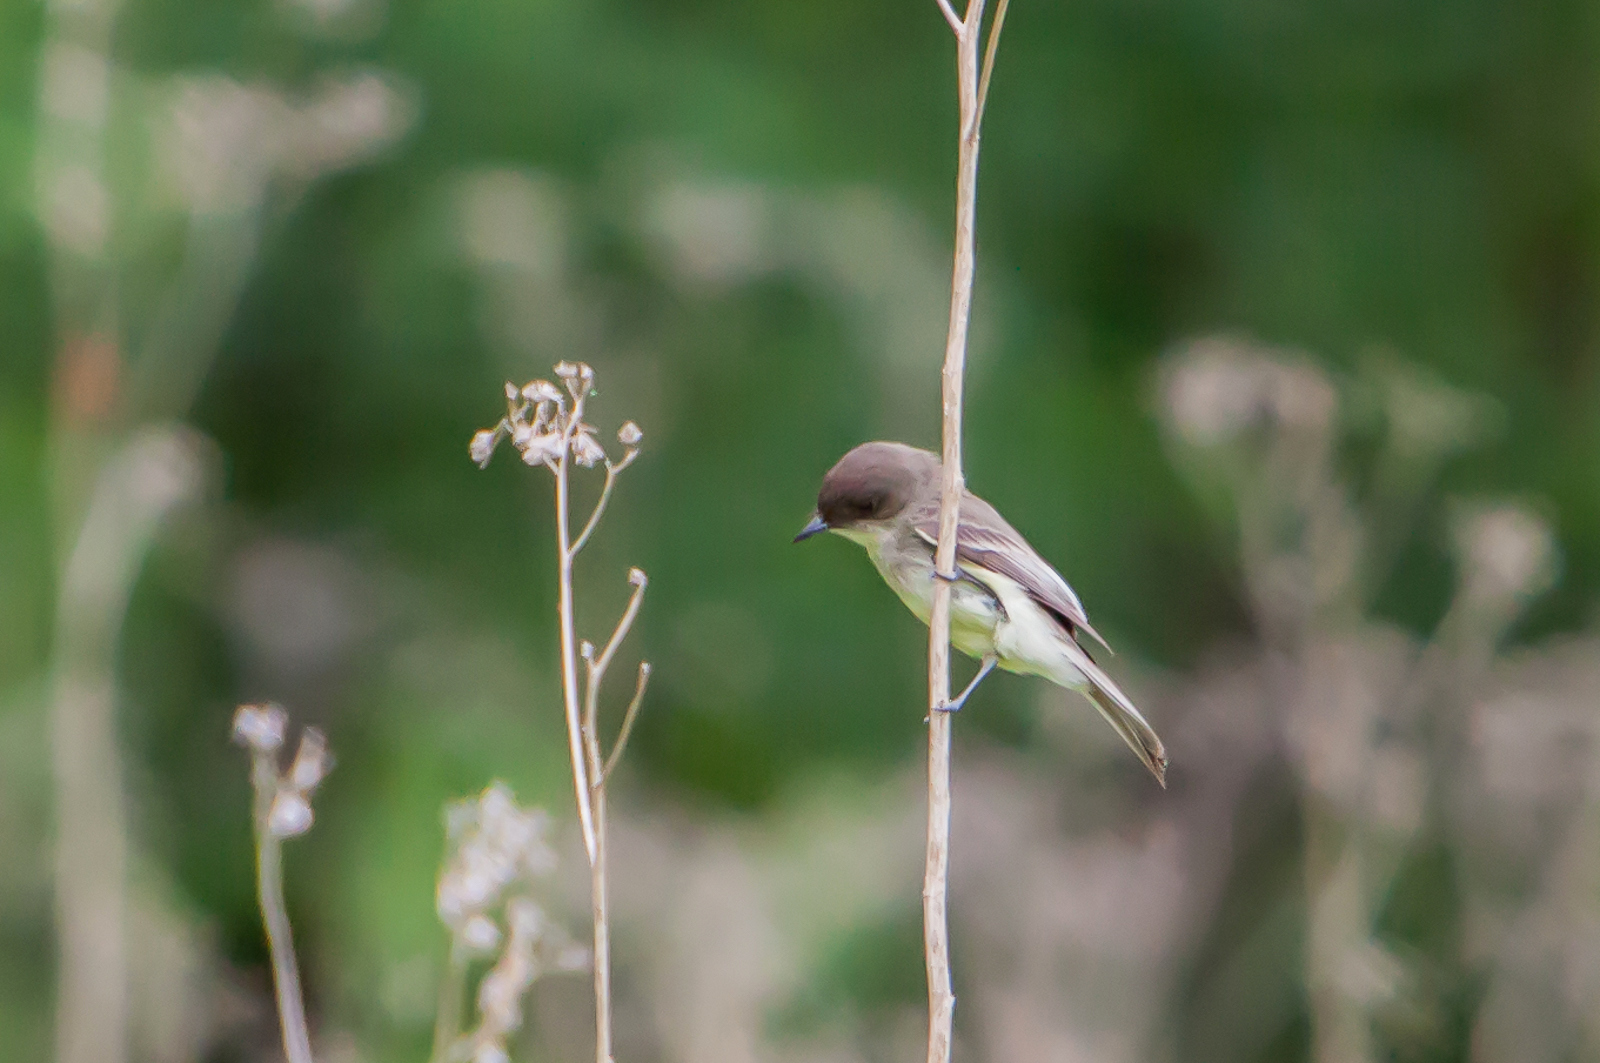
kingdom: Animalia
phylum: Chordata
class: Aves
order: Passeriformes
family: Tyrannidae
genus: Sayornis
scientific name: Sayornis phoebe
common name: Eastern phoebe
